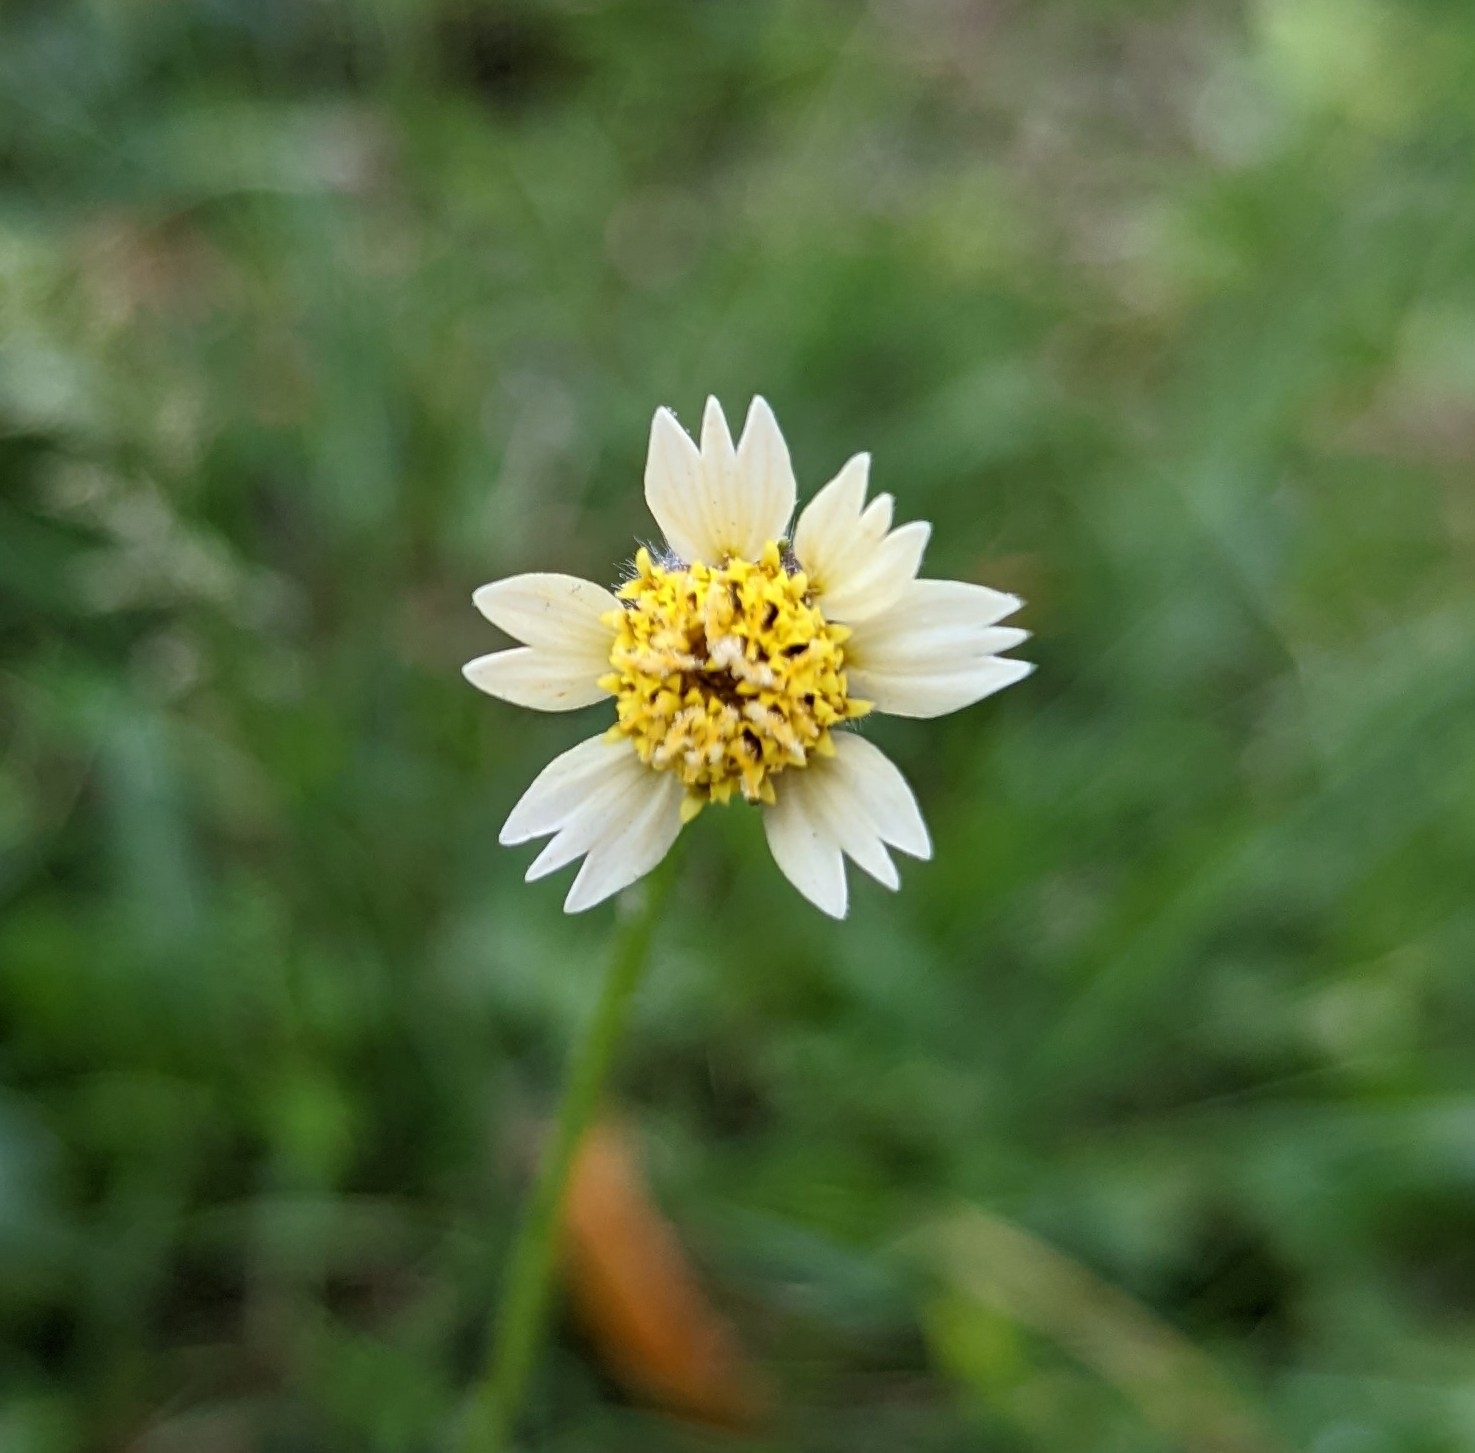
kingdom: Plantae
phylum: Tracheophyta
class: Magnoliopsida
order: Asterales
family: Asteraceae
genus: Tridax
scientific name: Tridax procumbens
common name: Coatbuttons
